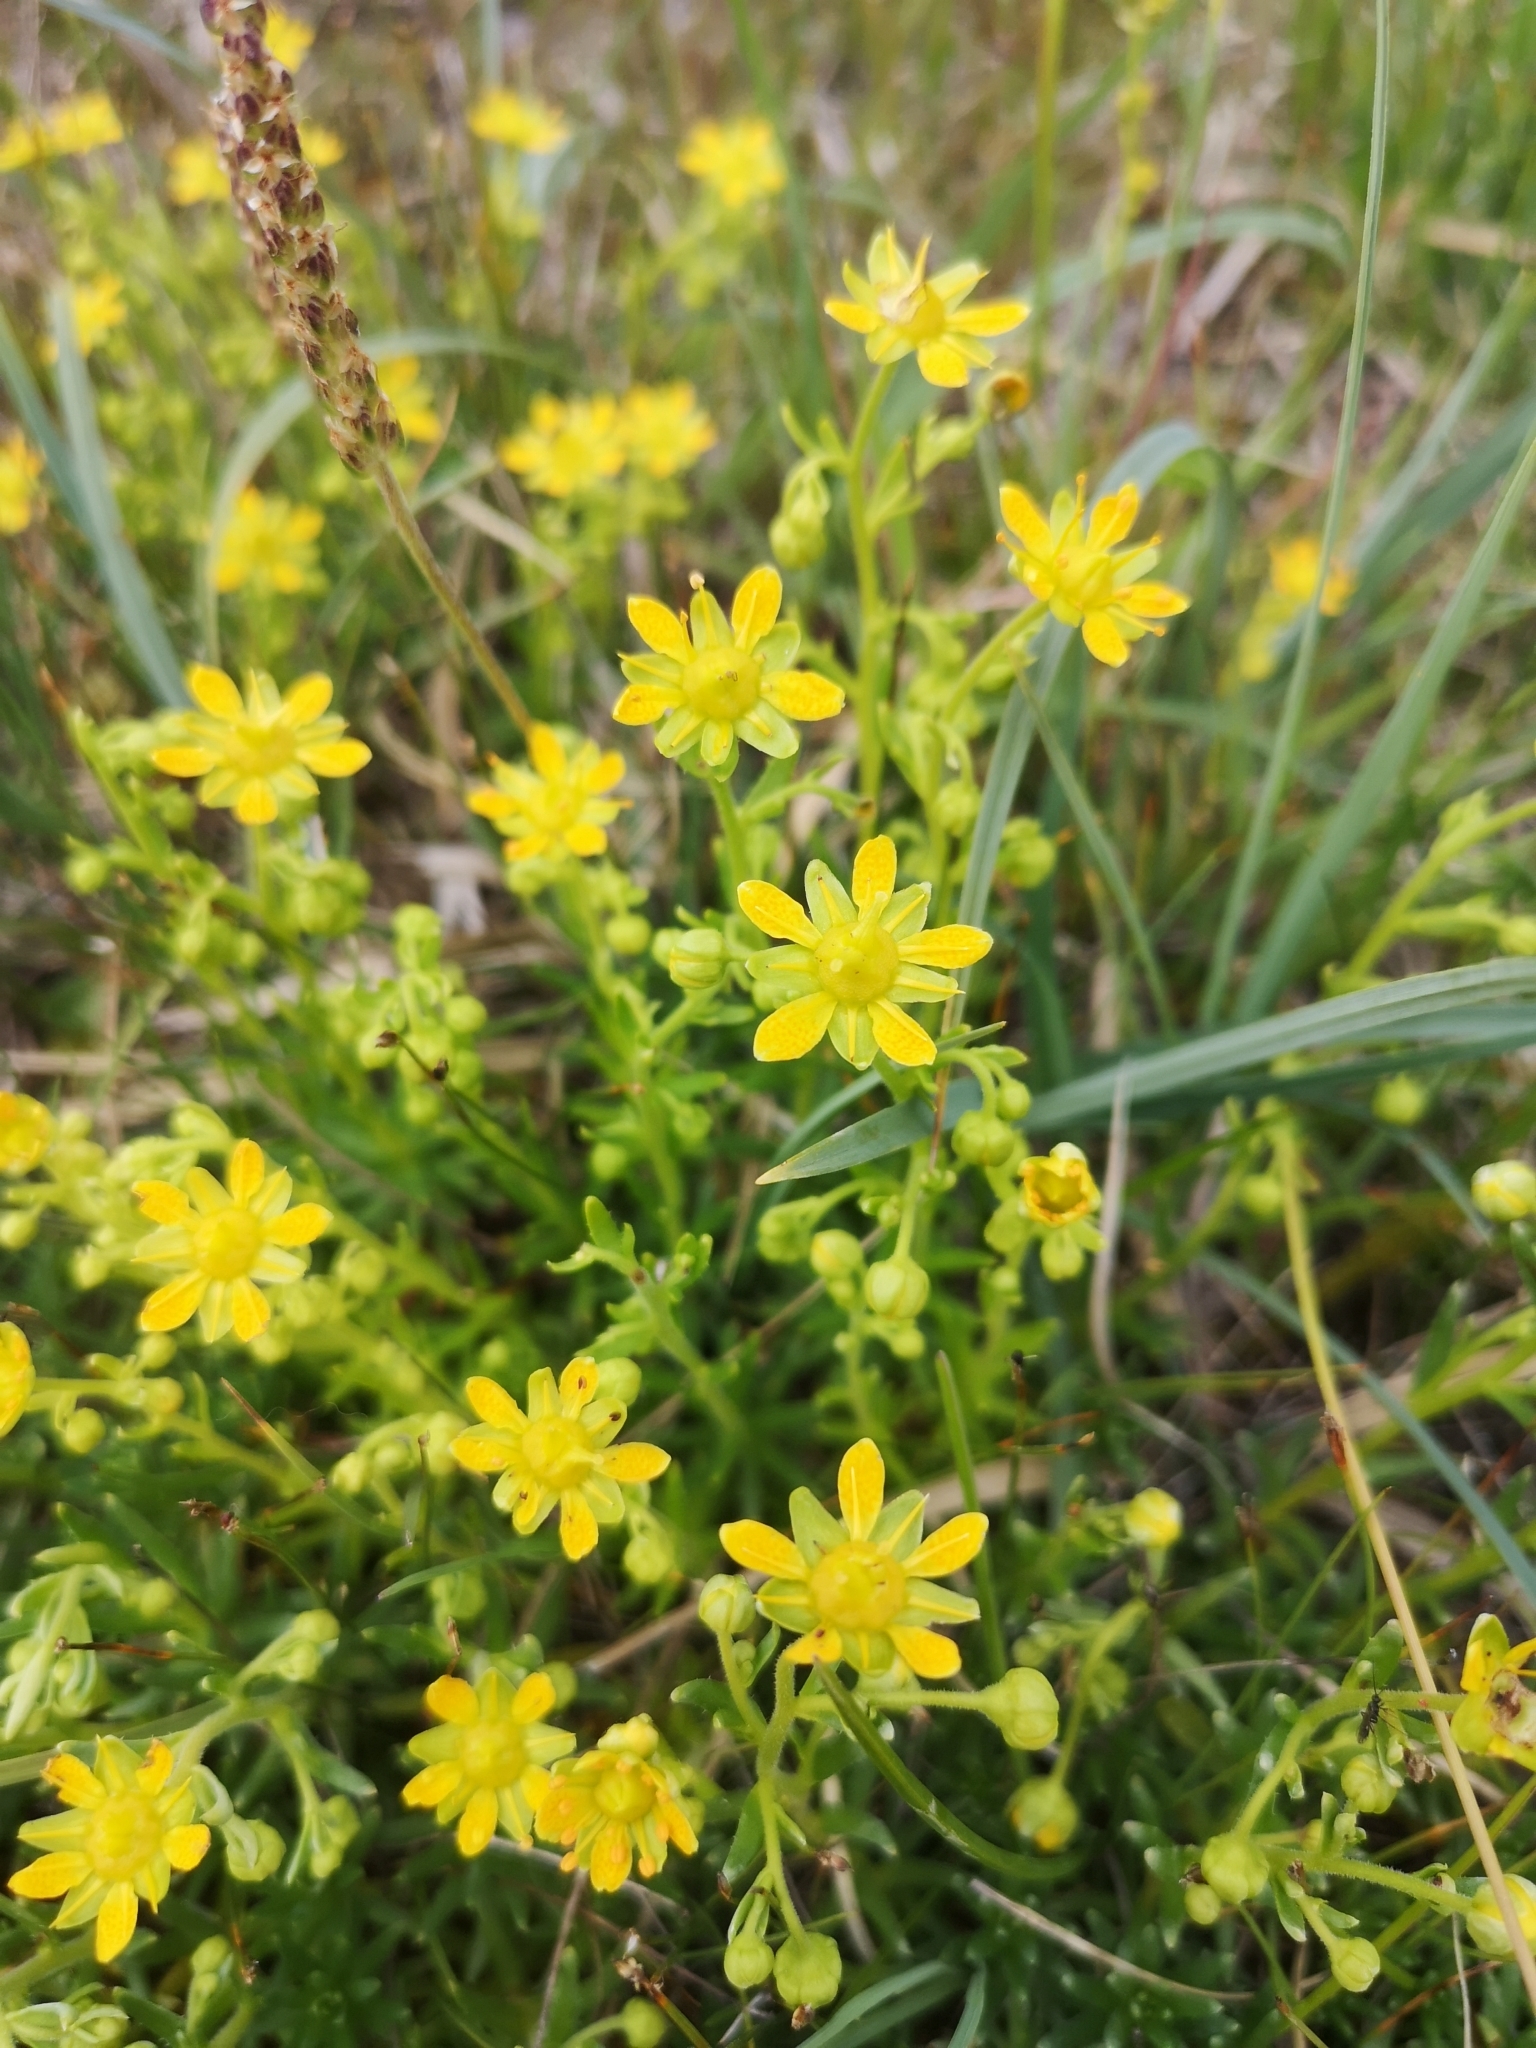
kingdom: Plantae
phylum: Tracheophyta
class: Magnoliopsida
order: Saxifragales
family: Saxifragaceae
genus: Saxifraga
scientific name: Saxifraga aizoides
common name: Yellow mountain saxifrage
